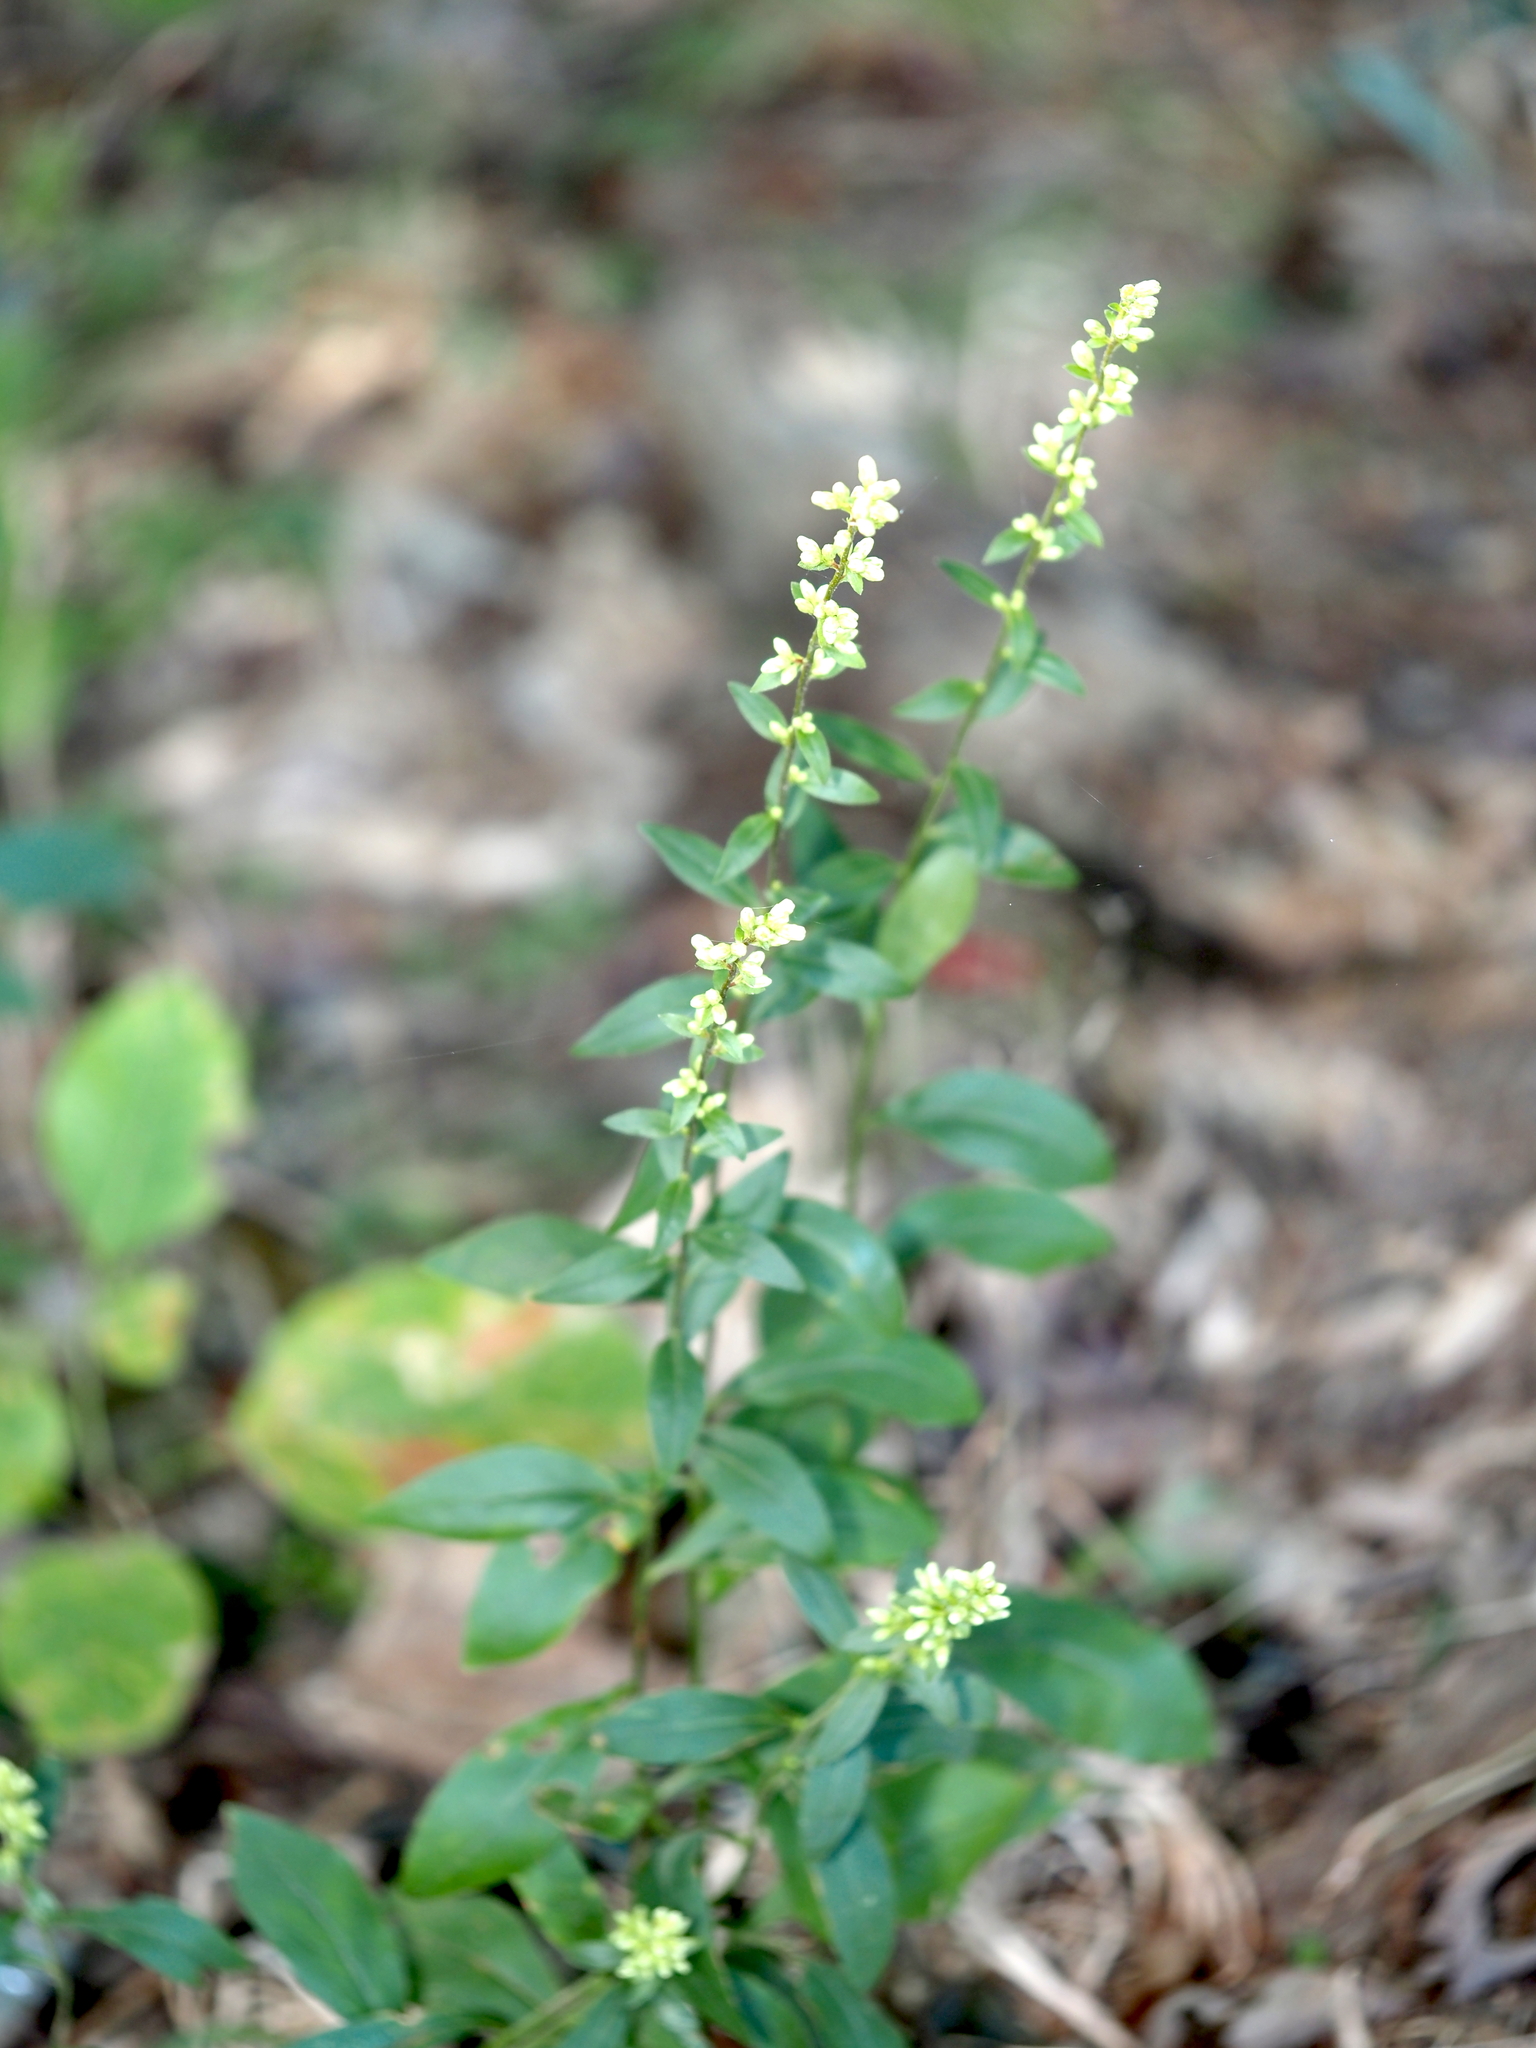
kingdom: Plantae
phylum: Tracheophyta
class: Magnoliopsida
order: Asterales
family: Asteraceae
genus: Solidago
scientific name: Solidago bicolor
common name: Silverrod
